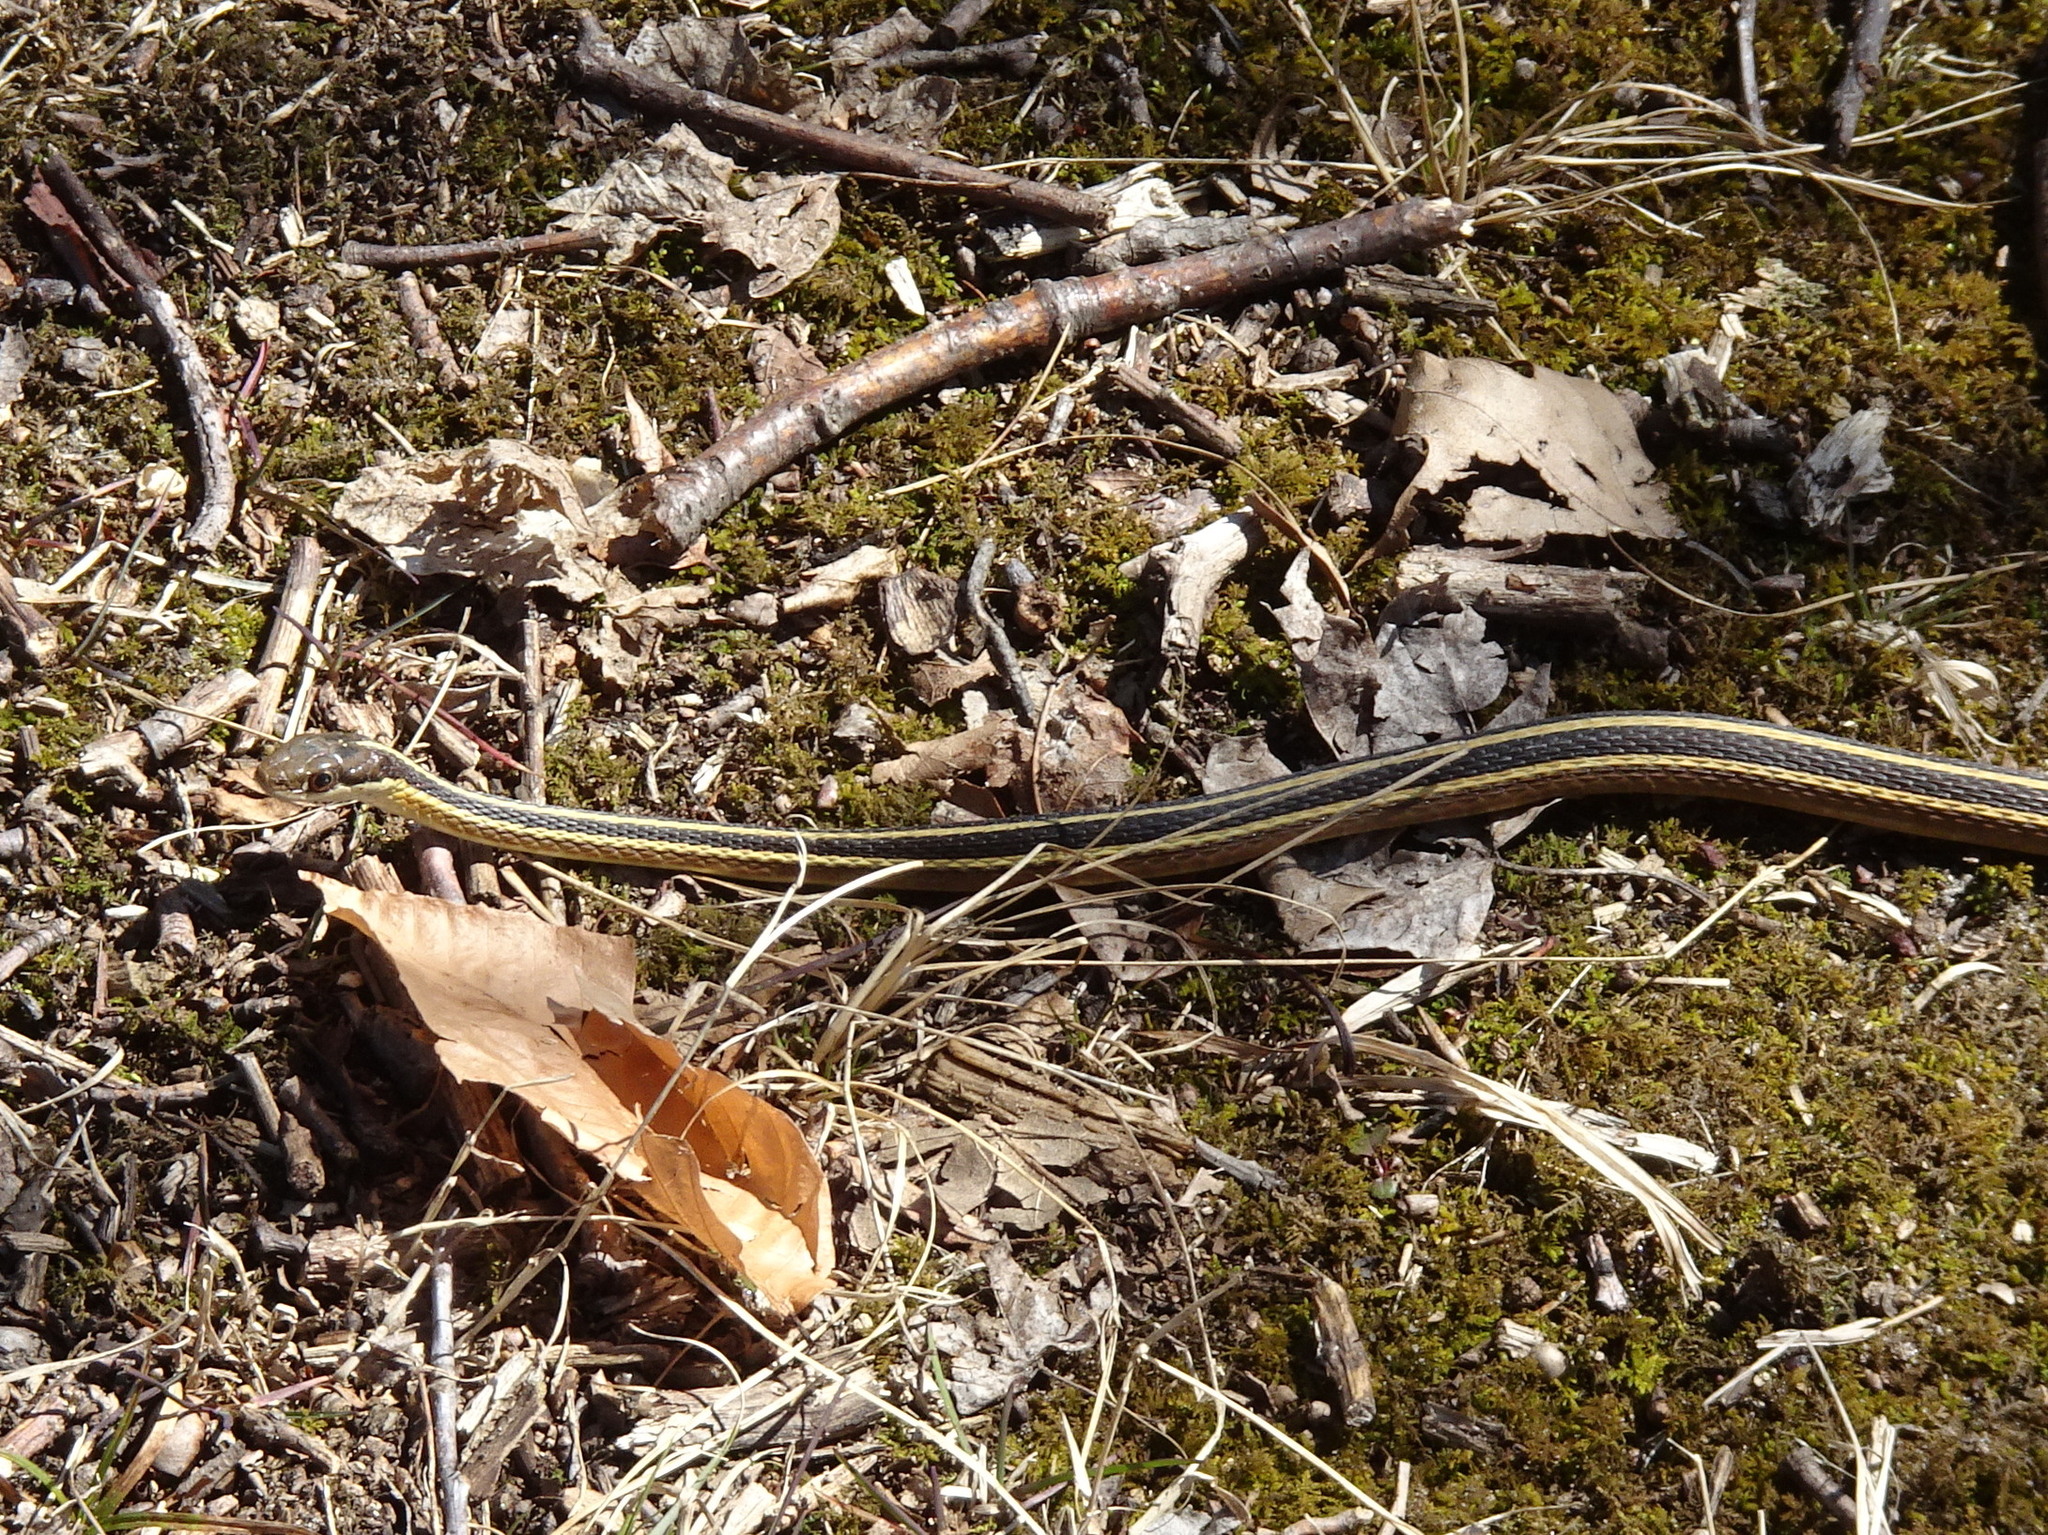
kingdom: Animalia
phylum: Chordata
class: Squamata
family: Colubridae
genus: Thamnophis
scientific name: Thamnophis saurita
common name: Eastern ribbonsnake
